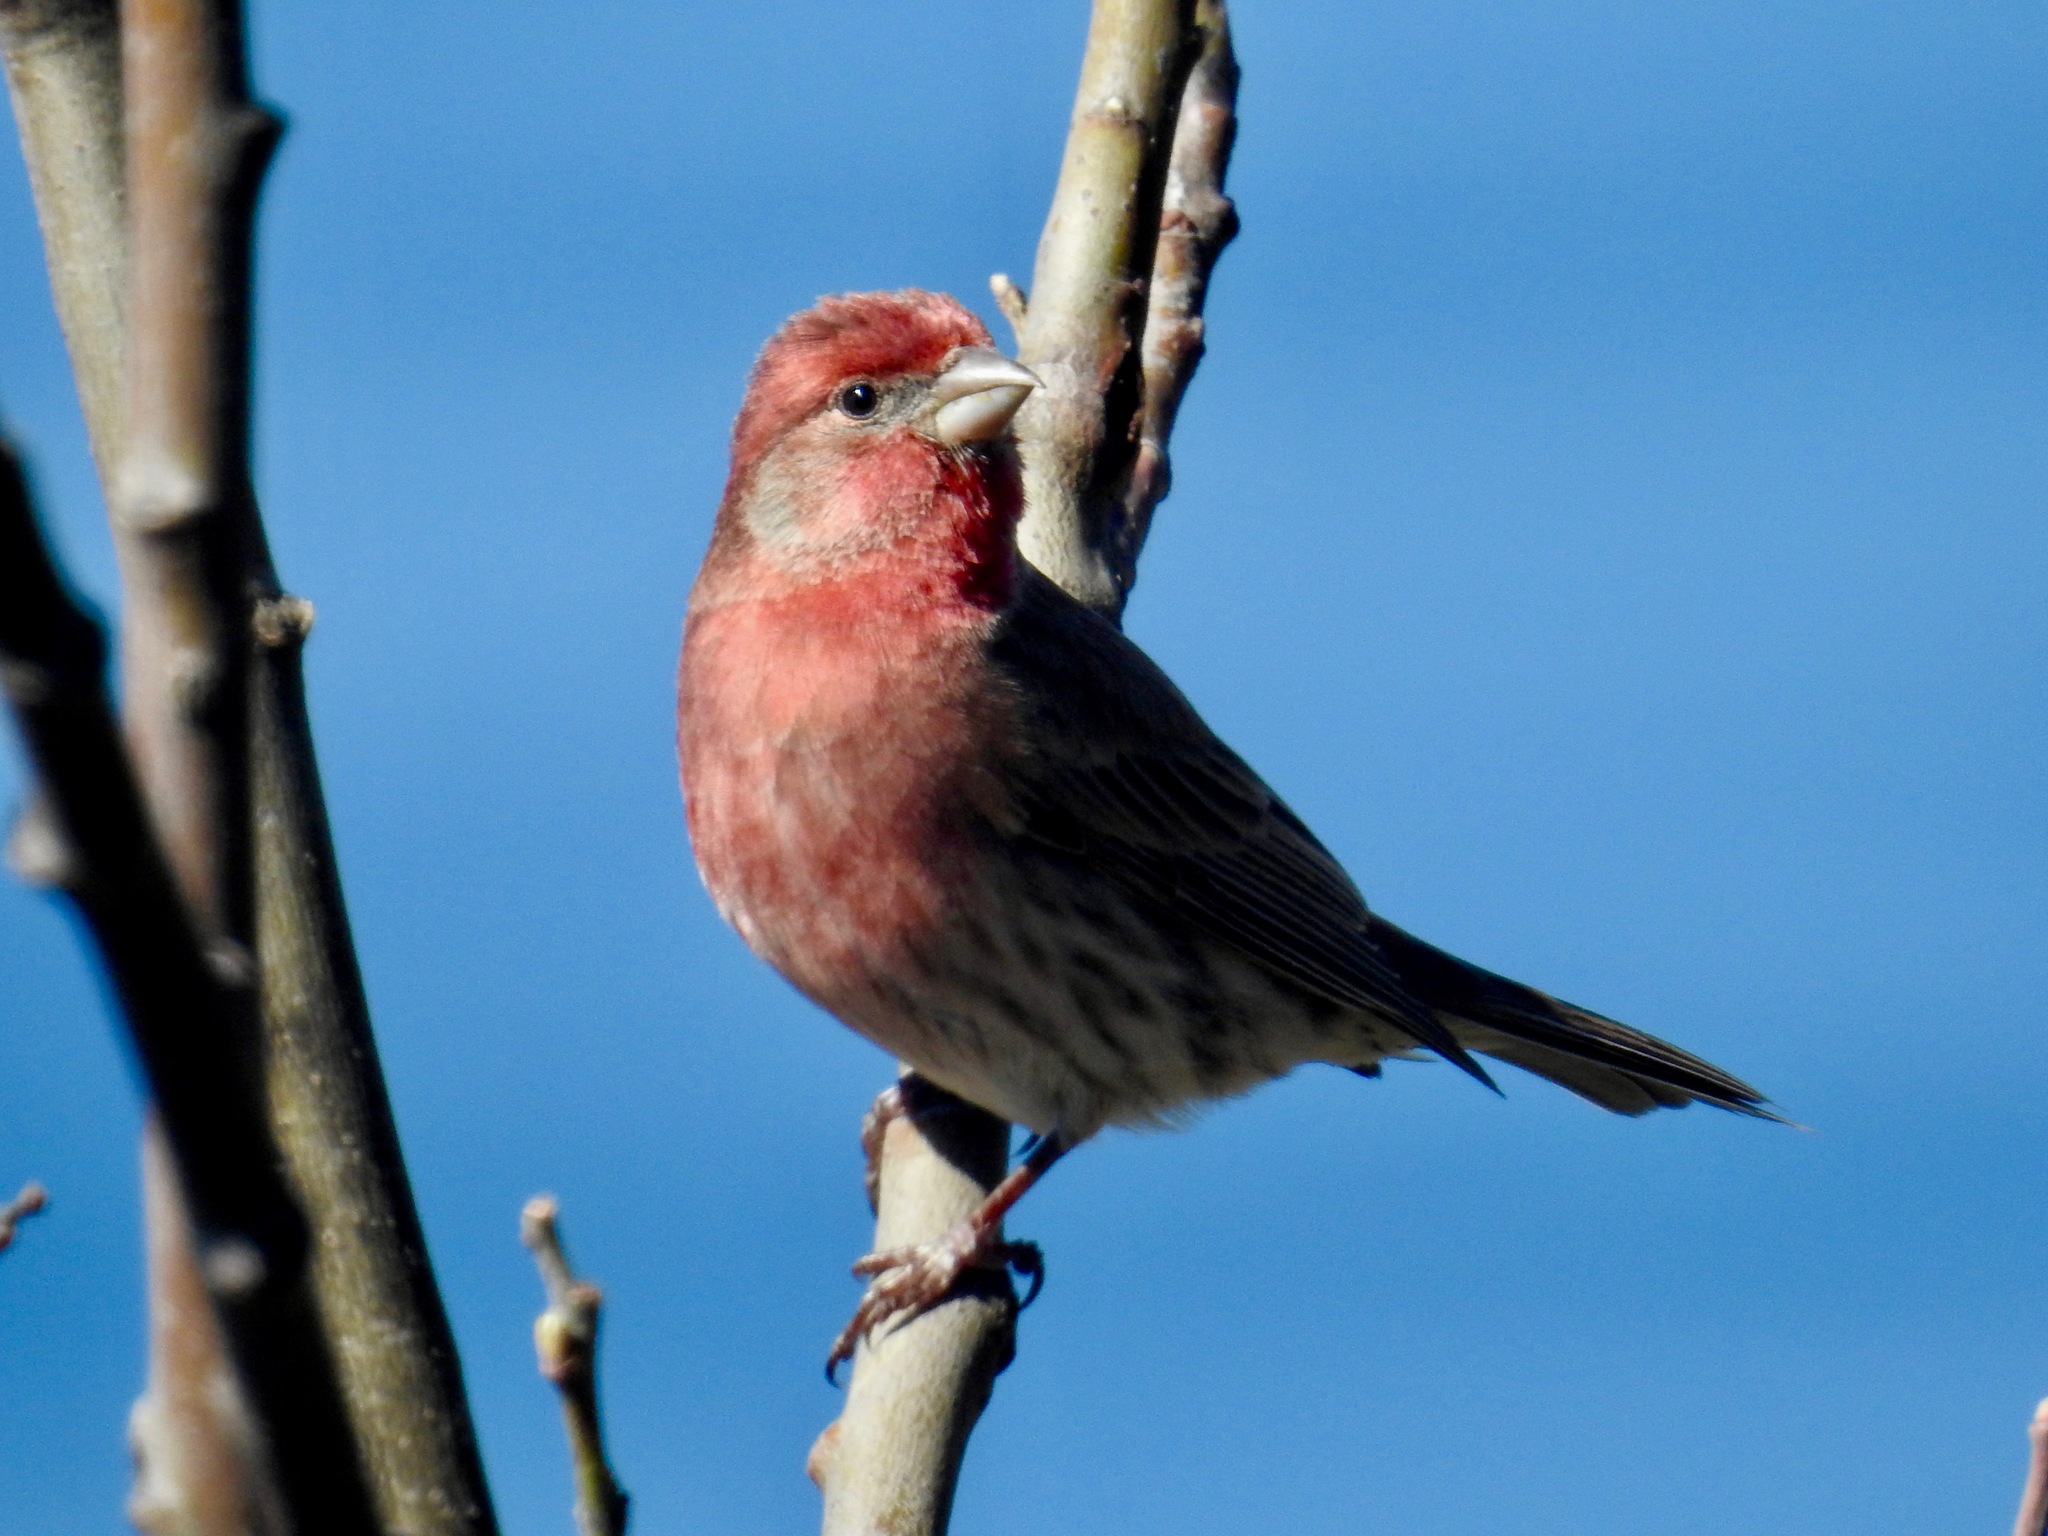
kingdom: Animalia
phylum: Chordata
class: Aves
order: Passeriformes
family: Fringillidae
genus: Haemorhous
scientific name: Haemorhous mexicanus
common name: House finch
